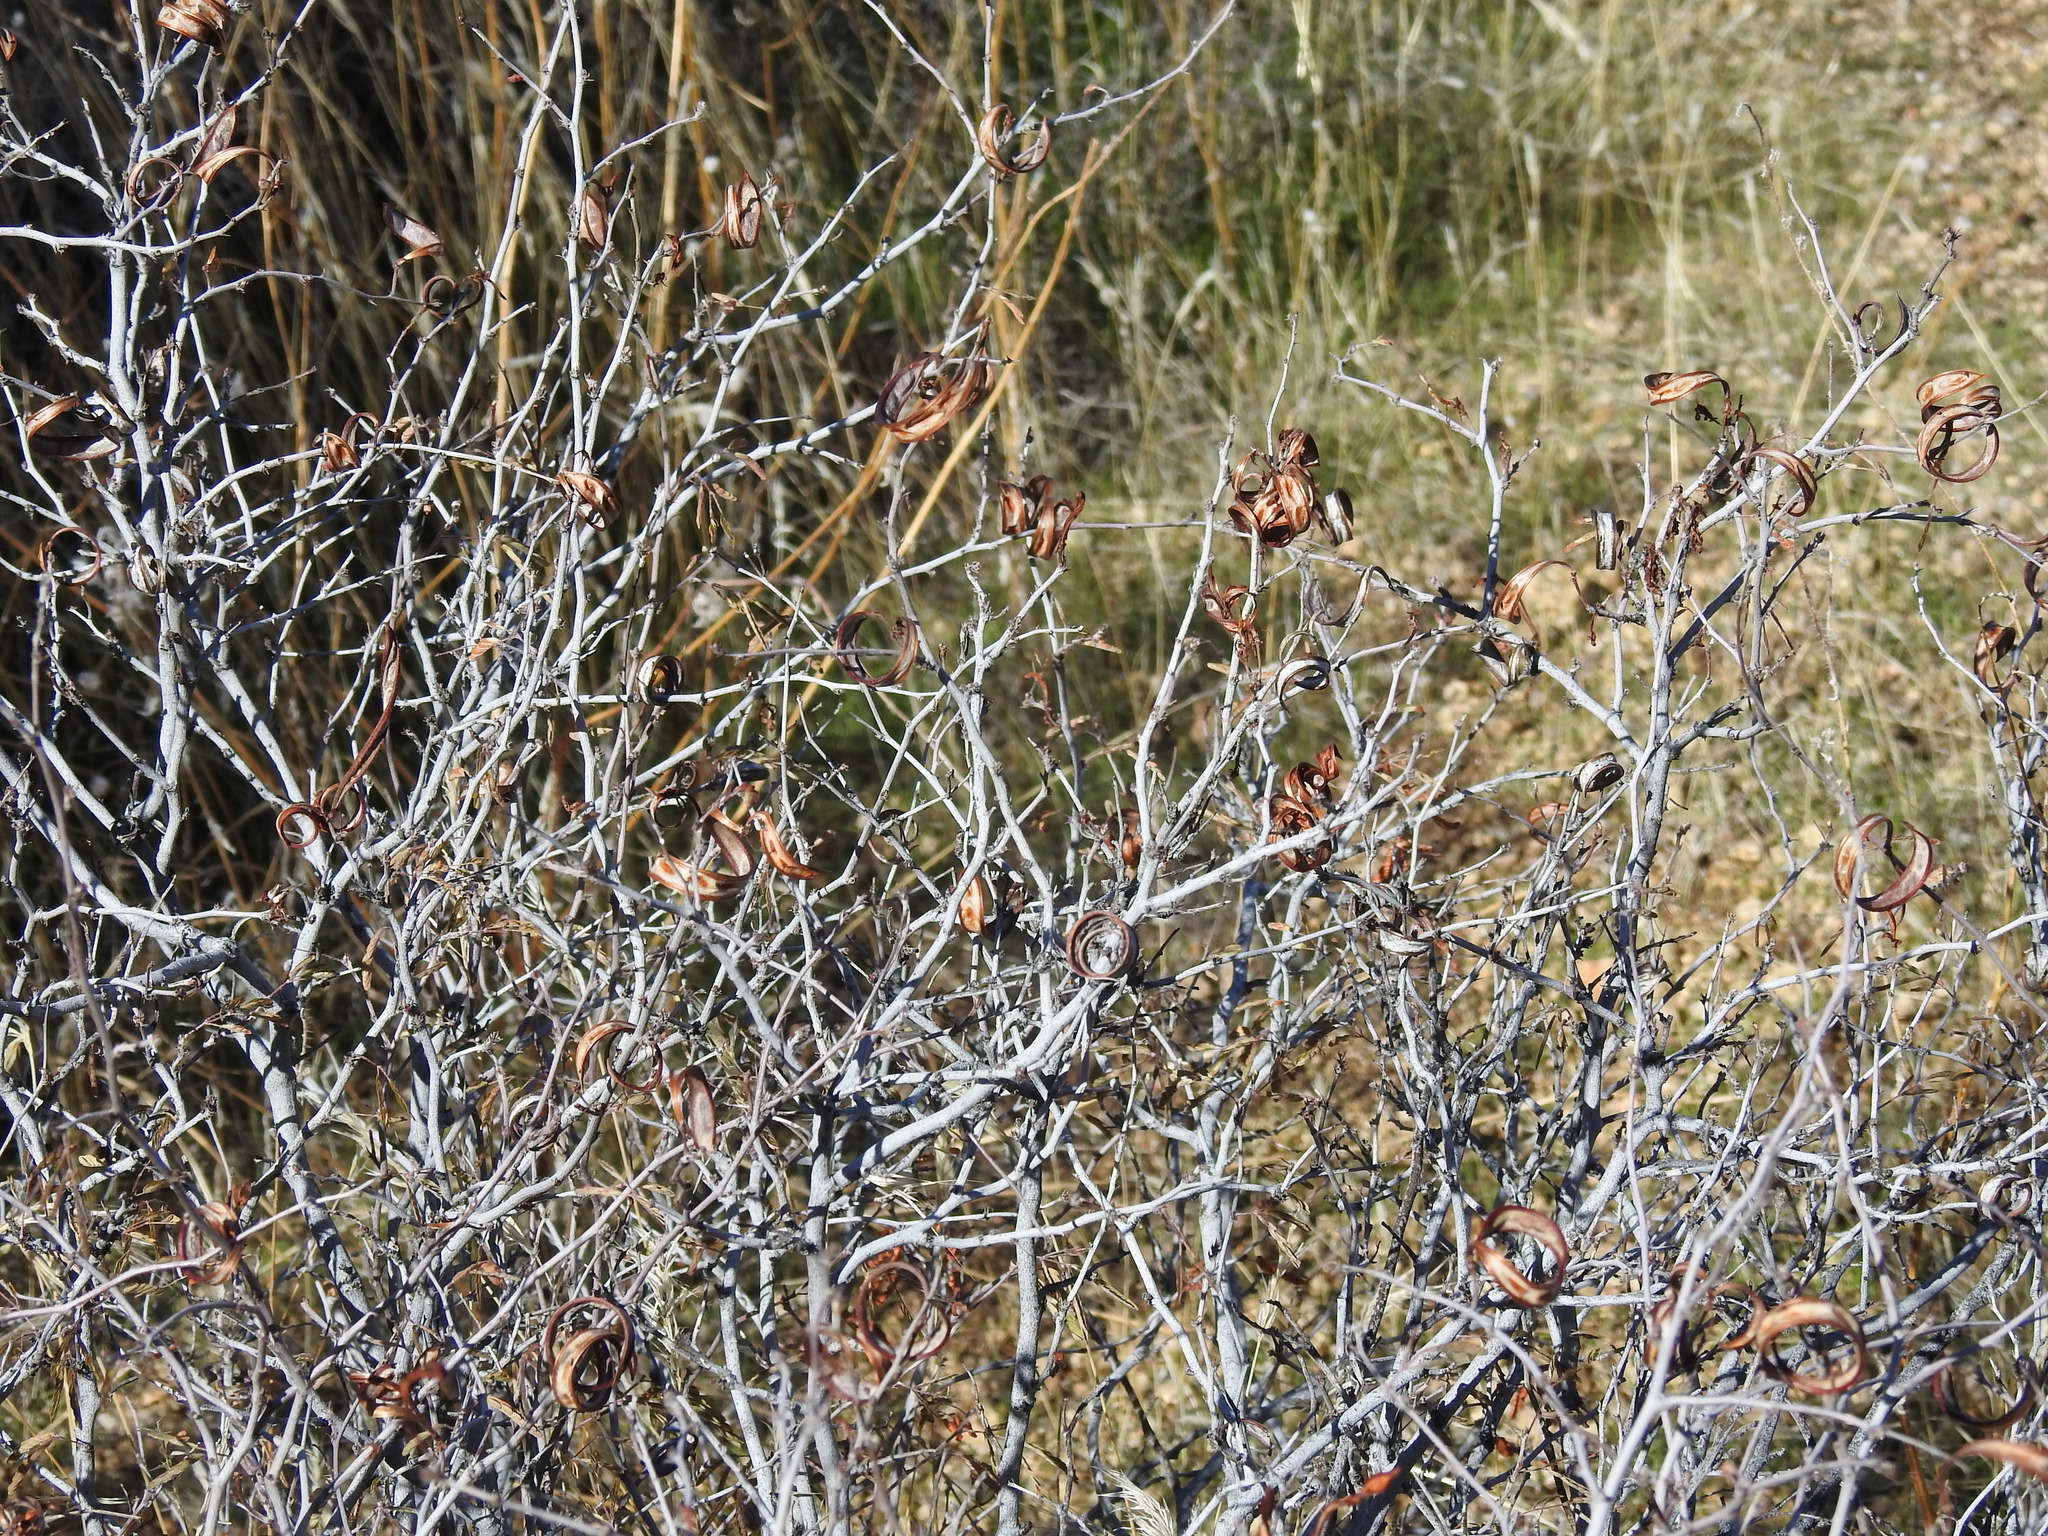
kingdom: Plantae
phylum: Tracheophyta
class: Magnoliopsida
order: Fabales
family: Fabaceae
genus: Calliandra
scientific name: Calliandra eriophylla
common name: Fairy-duster
